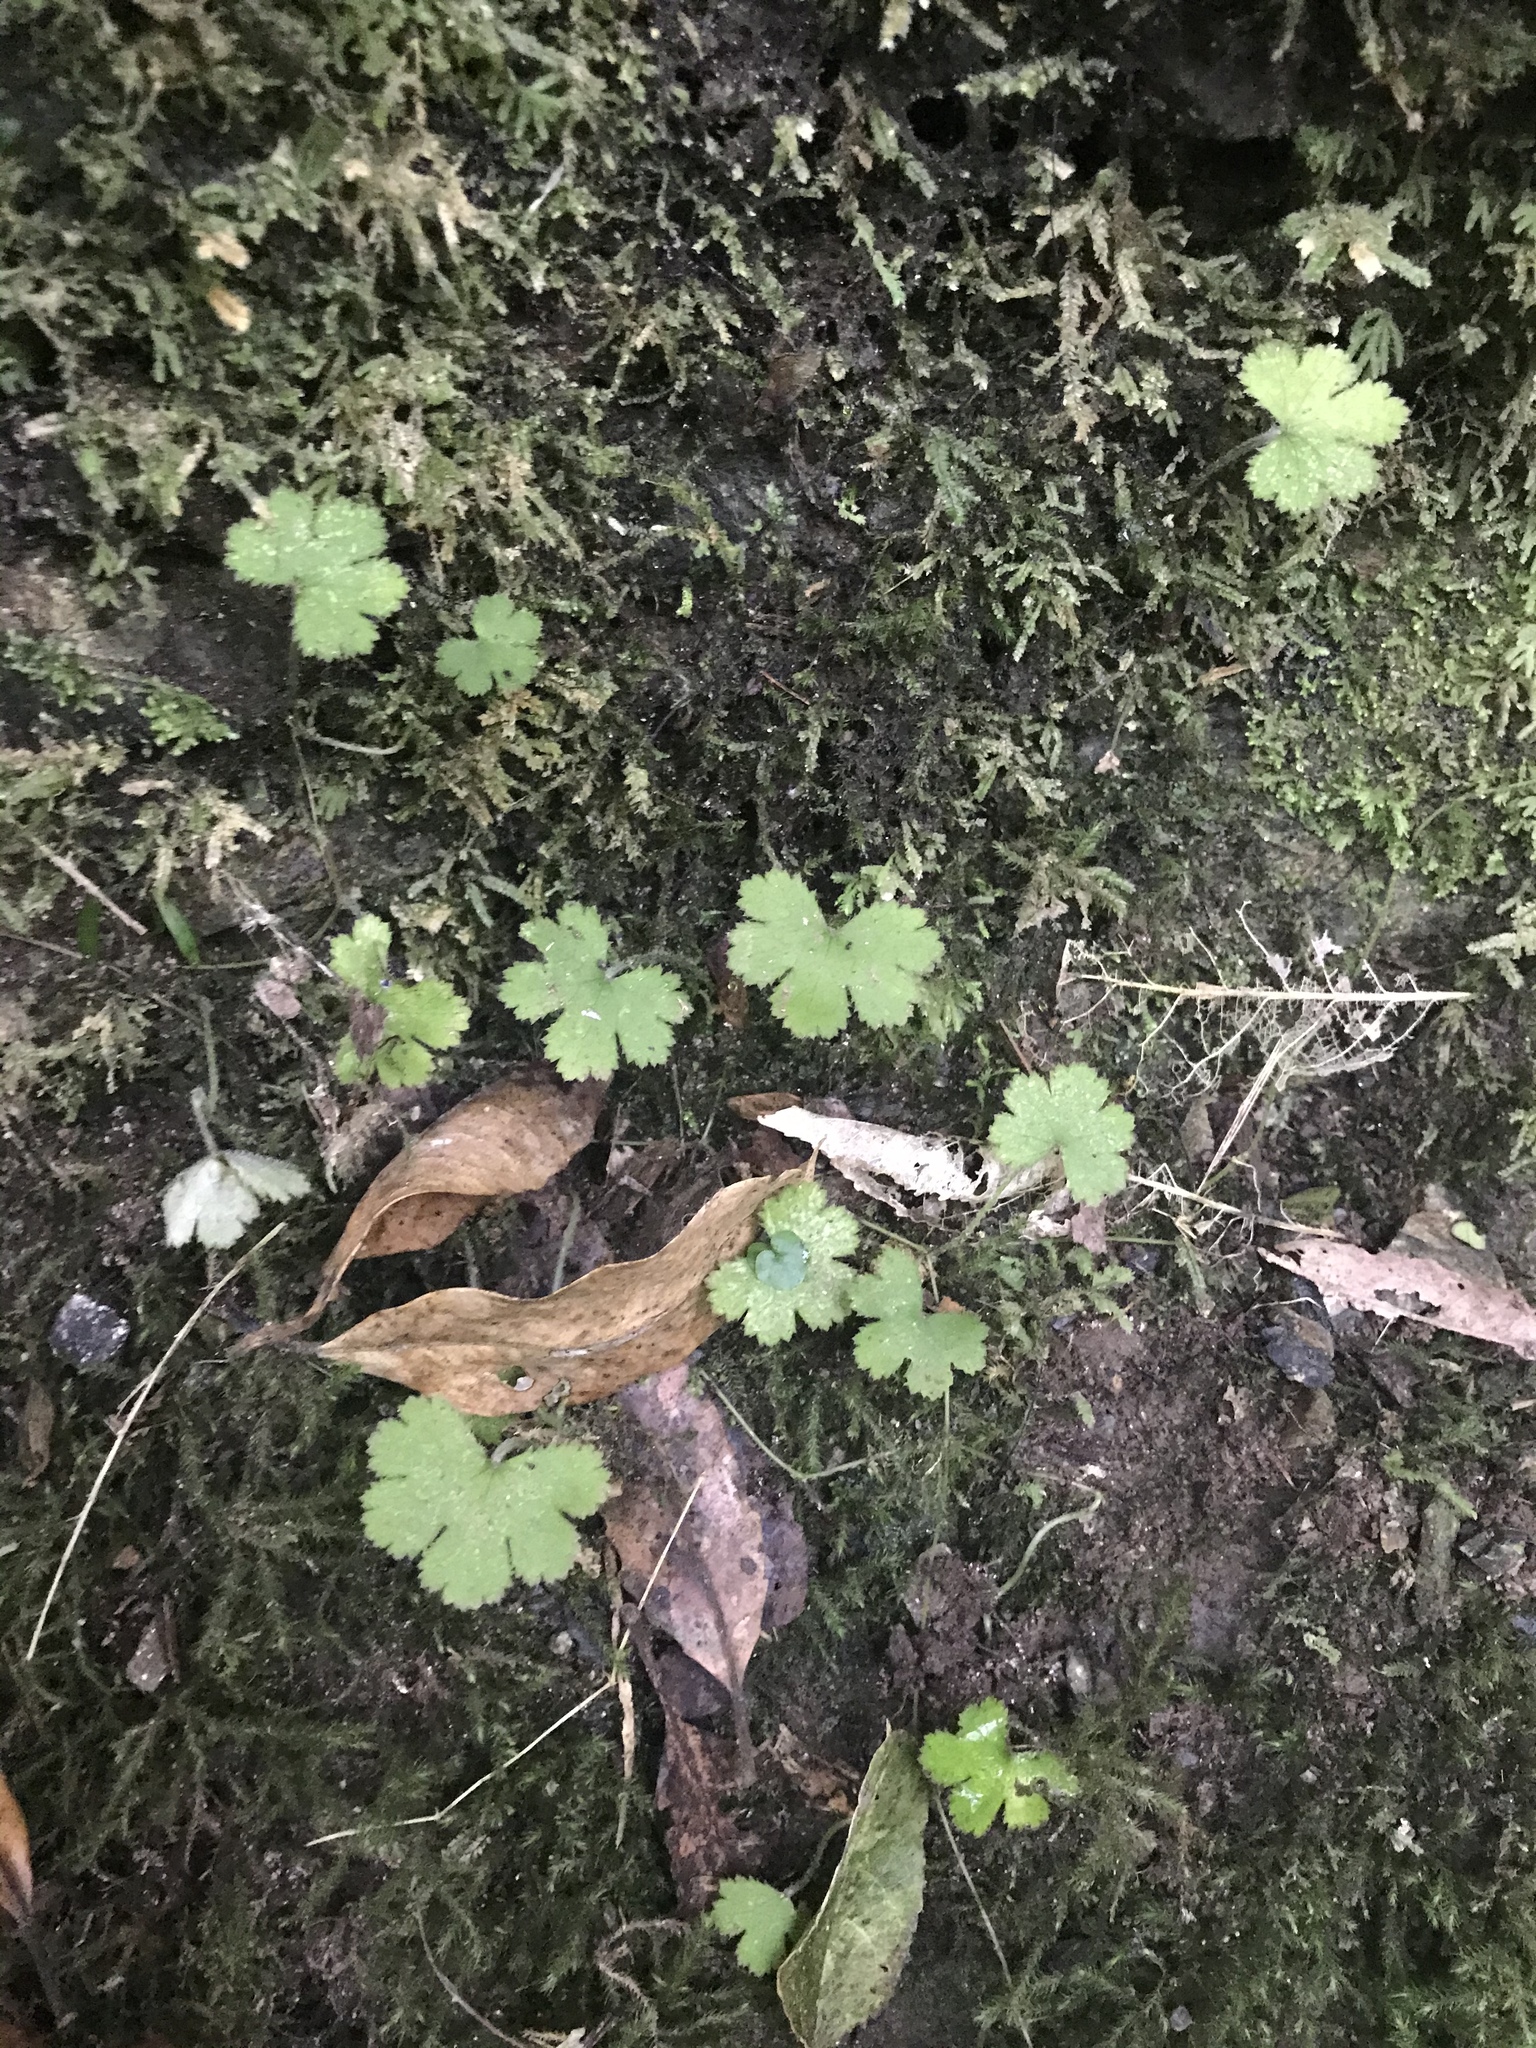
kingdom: Plantae
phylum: Tracheophyta
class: Magnoliopsida
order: Apiales
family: Araliaceae
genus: Hydrocotyle
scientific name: Hydrocotyle elongata
